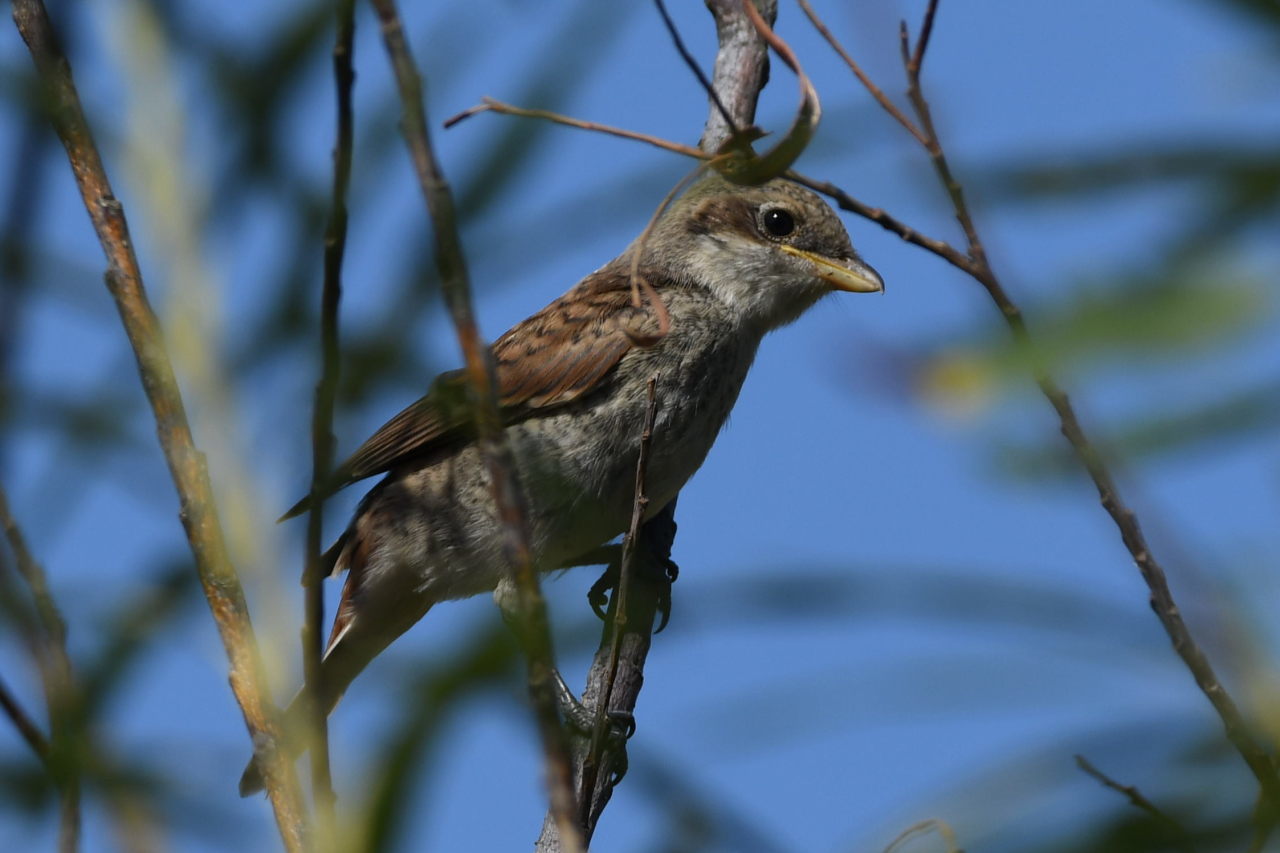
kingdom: Animalia
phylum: Chordata
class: Aves
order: Passeriformes
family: Laniidae
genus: Lanius
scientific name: Lanius collurio
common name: Red-backed shrike
